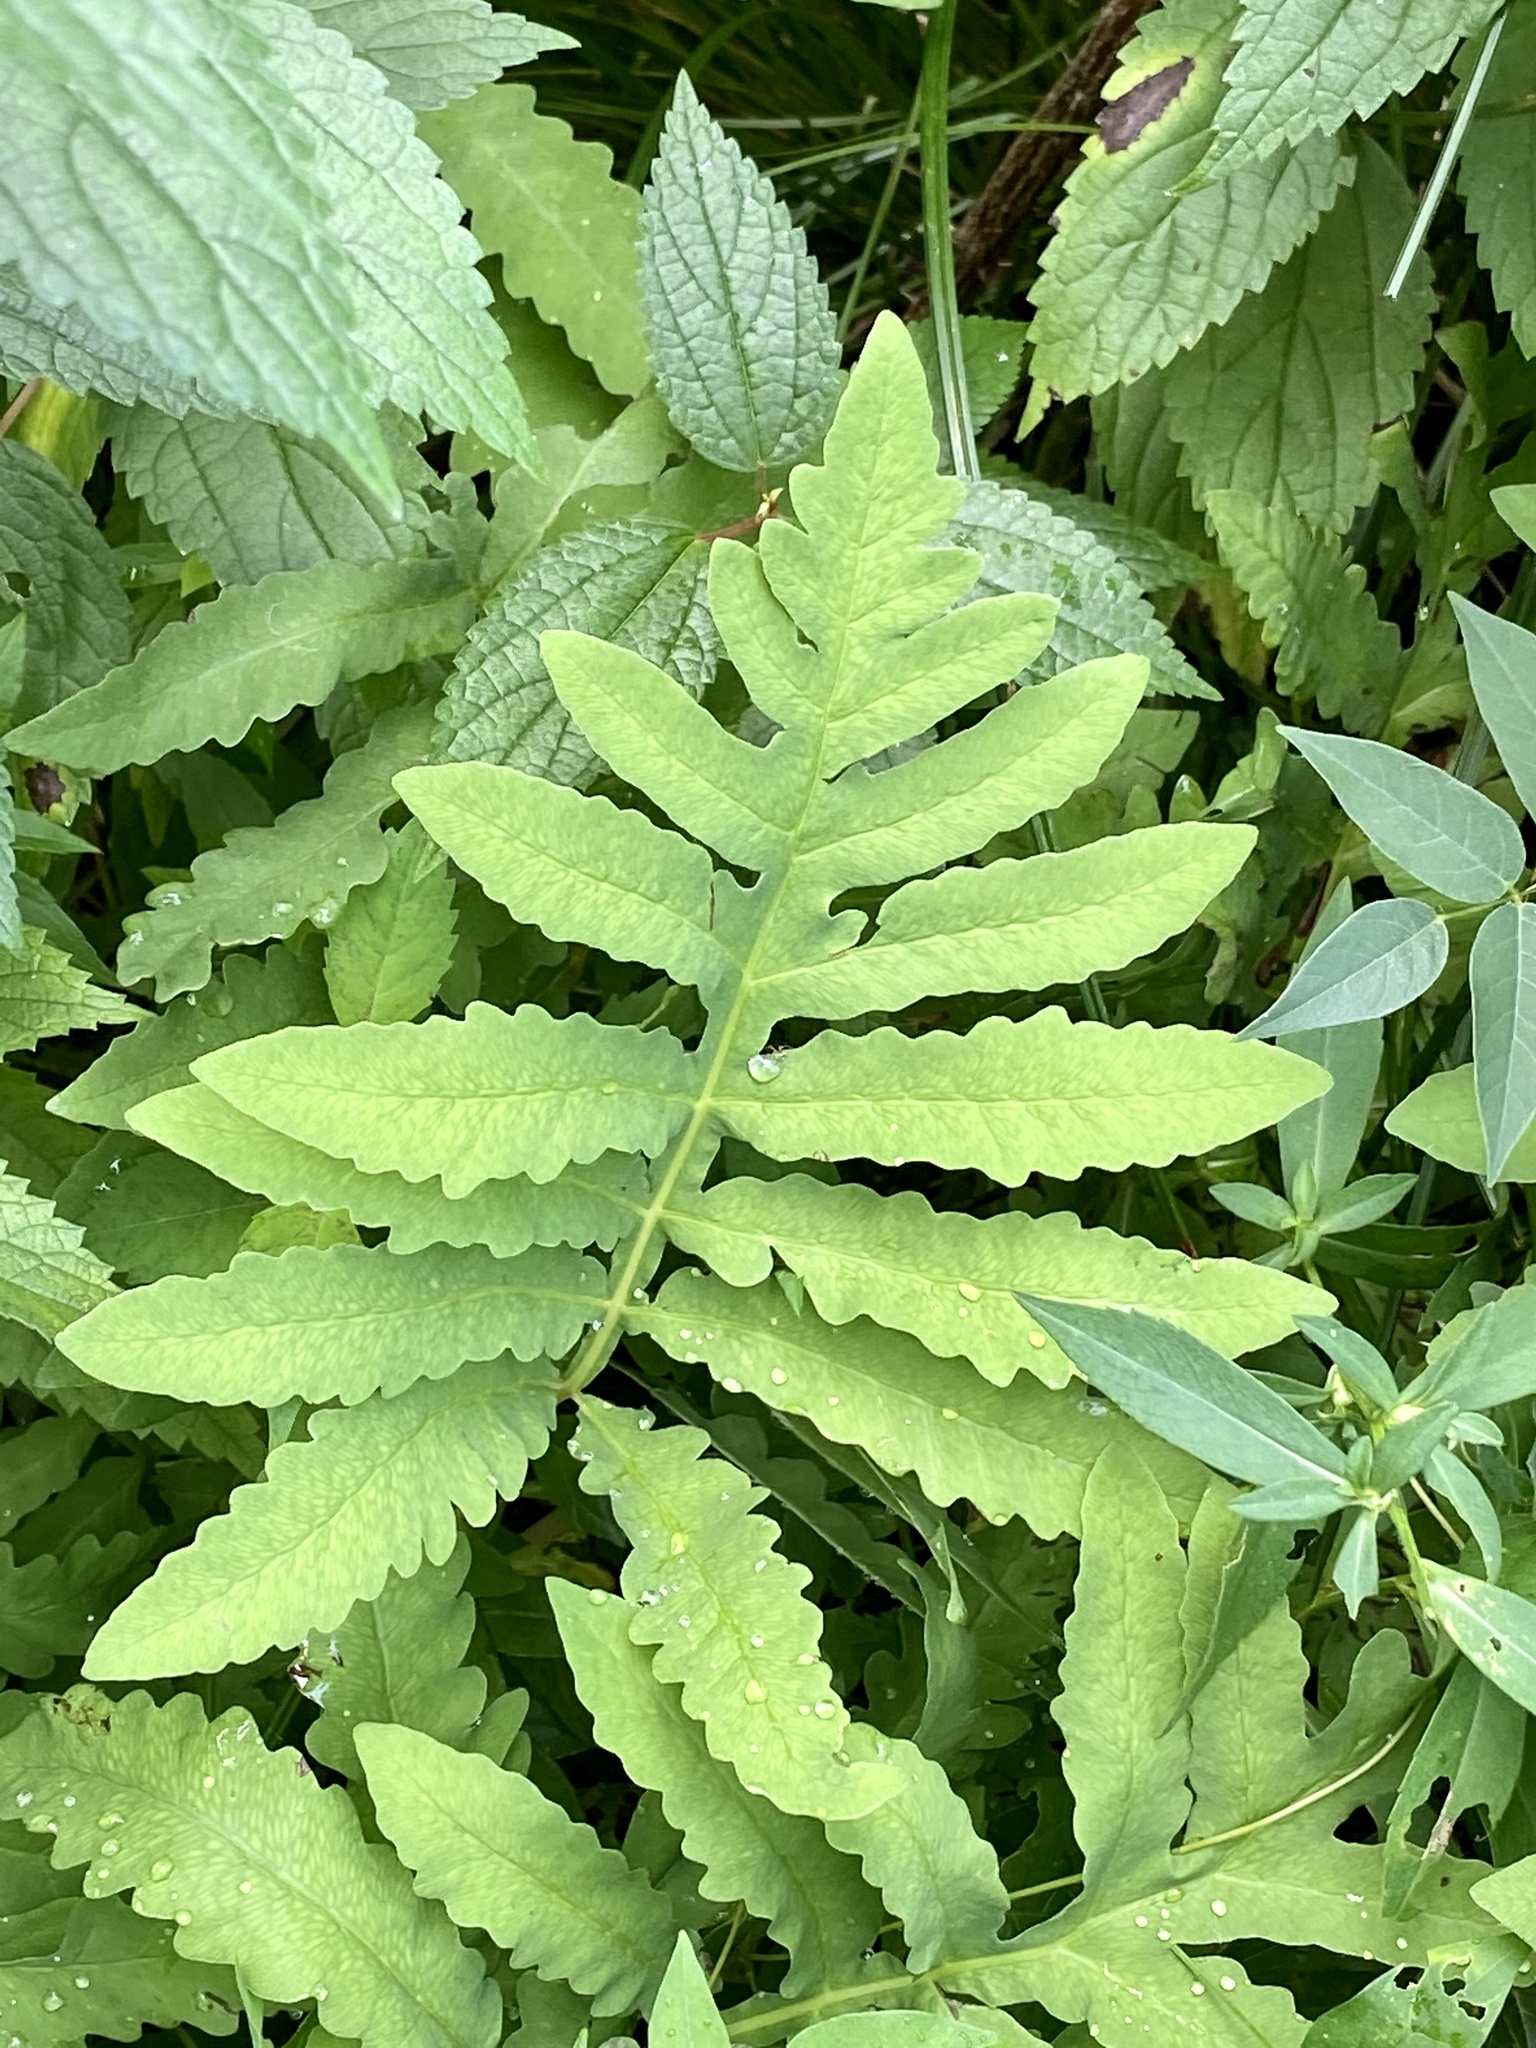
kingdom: Plantae
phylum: Tracheophyta
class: Polypodiopsida
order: Polypodiales
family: Onocleaceae
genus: Onoclea
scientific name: Onoclea sensibilis
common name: Sensitive fern
